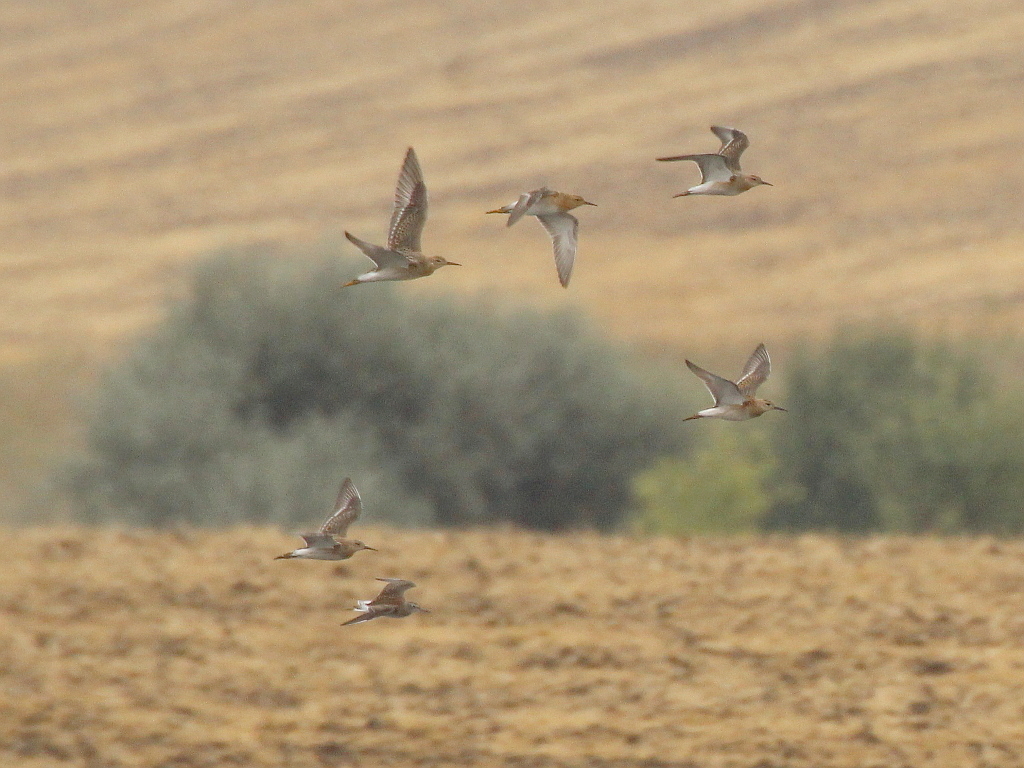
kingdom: Animalia
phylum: Chordata
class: Aves
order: Charadriiformes
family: Scolopacidae
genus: Calidris
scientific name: Calidris pugnax
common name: Ruff
